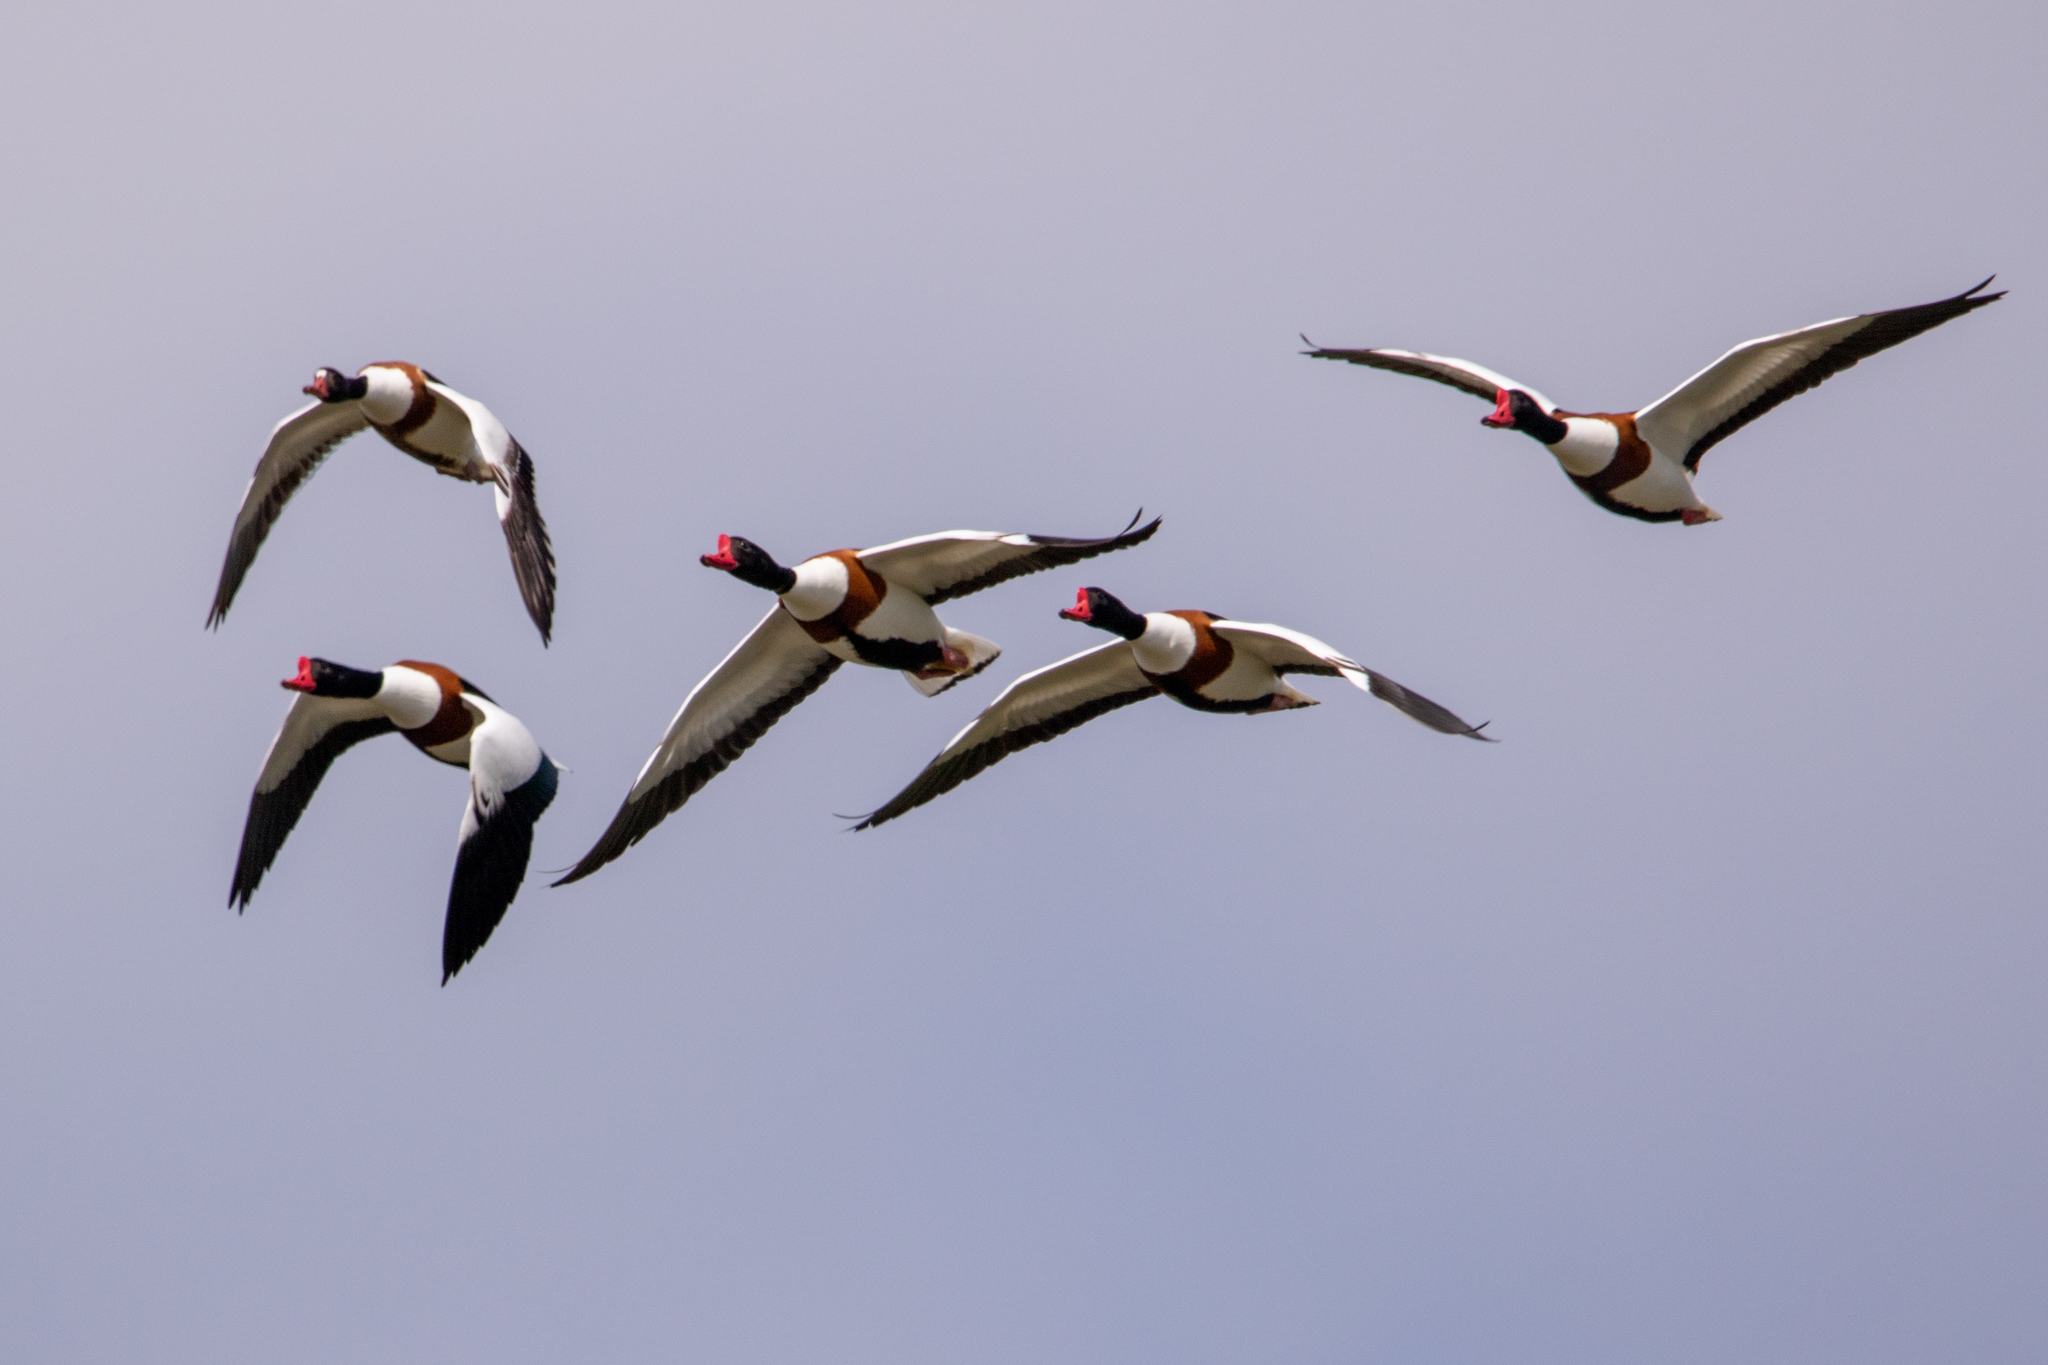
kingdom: Animalia
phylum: Chordata
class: Aves
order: Anseriformes
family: Anatidae
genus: Tadorna
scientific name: Tadorna tadorna
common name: Common shelduck
